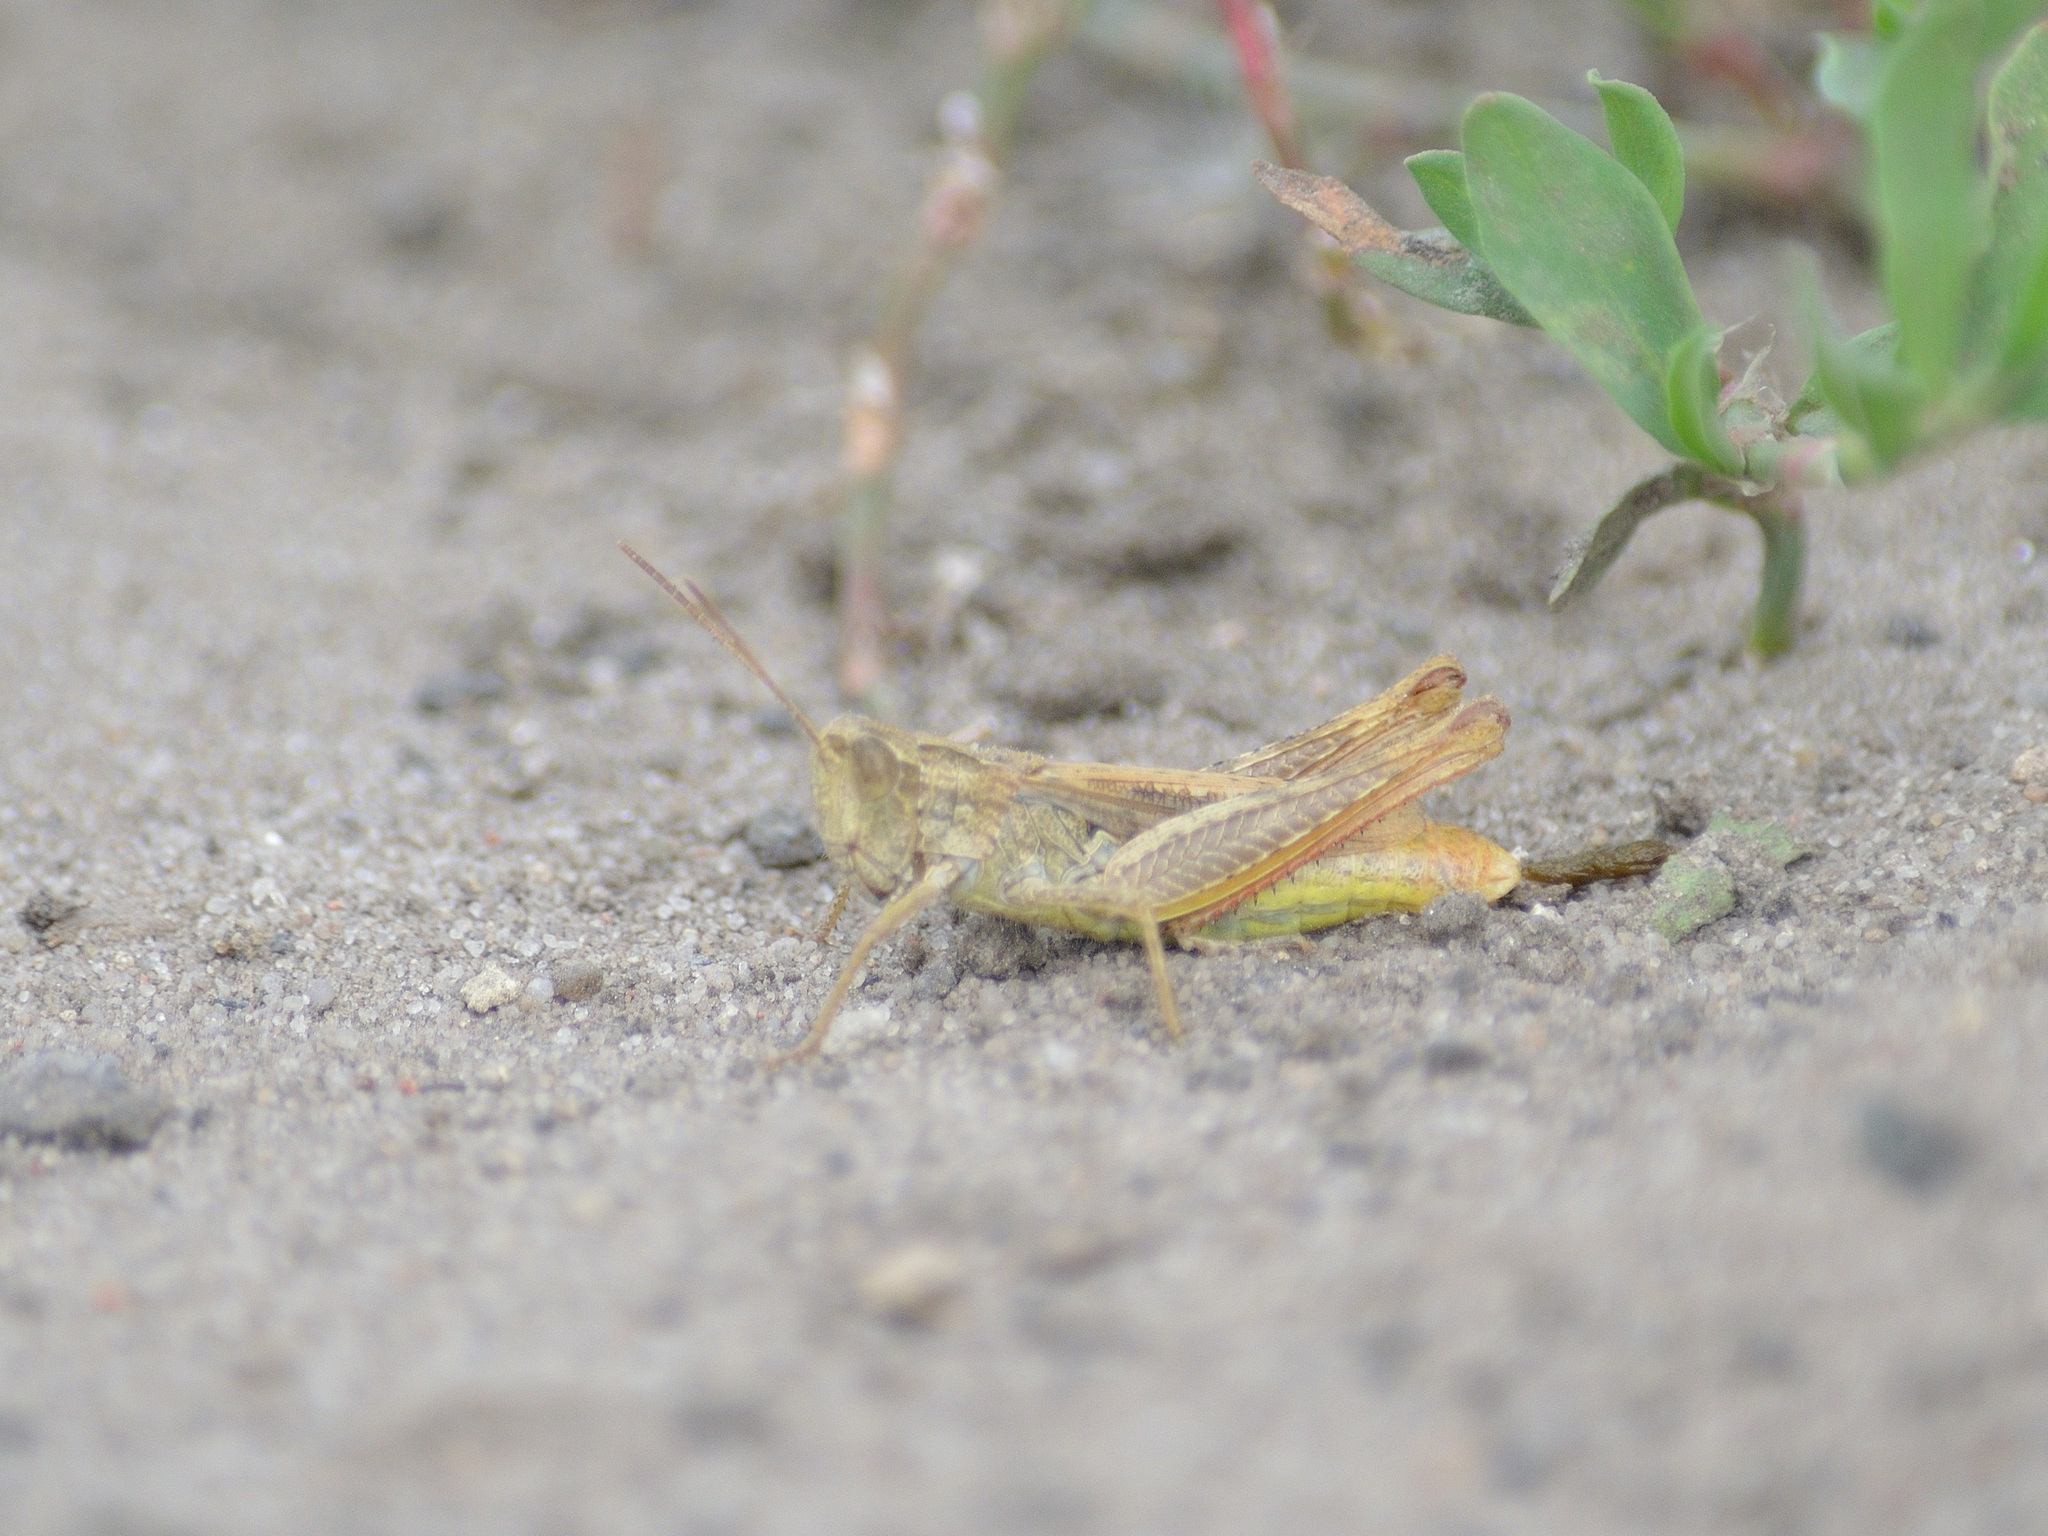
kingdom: Animalia
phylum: Arthropoda
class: Insecta
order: Orthoptera
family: Acrididae
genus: Chorthippus
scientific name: Chorthippus apricarius
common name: Upland field grasshopper
